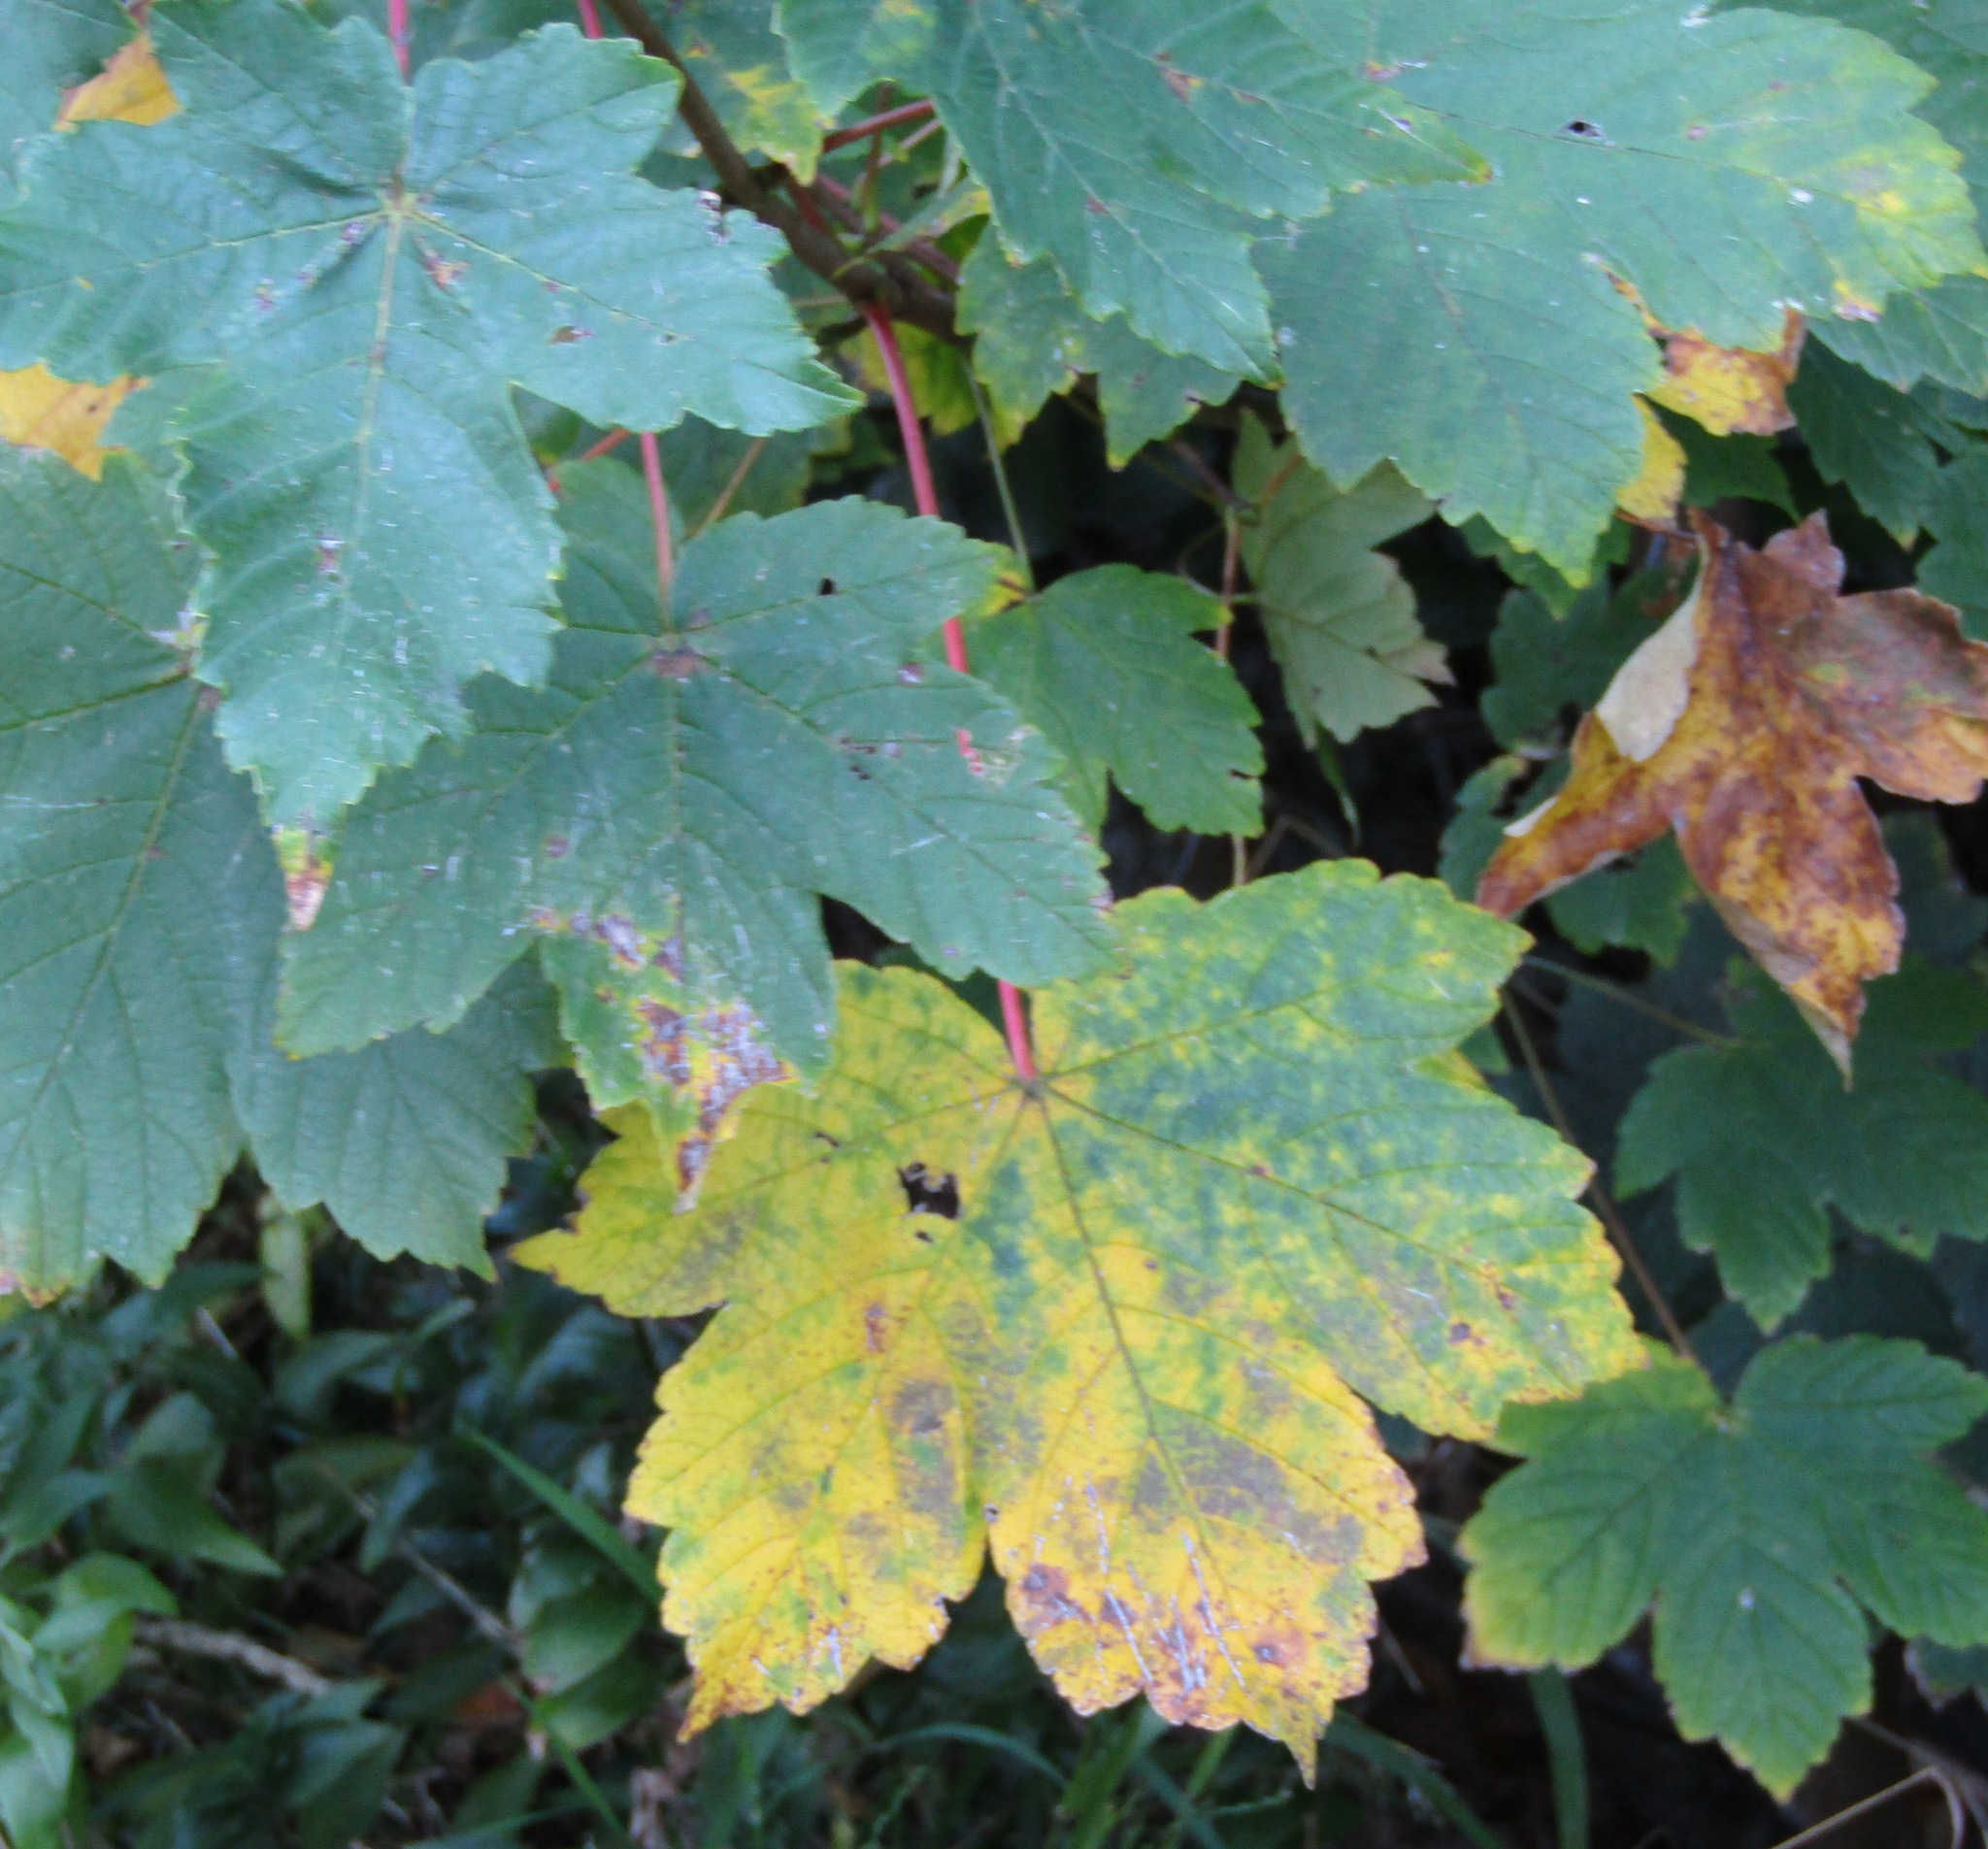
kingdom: Plantae
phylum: Tracheophyta
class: Magnoliopsida
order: Sapindales
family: Sapindaceae
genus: Acer
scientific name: Acer pseudoplatanus
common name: Sycamore
